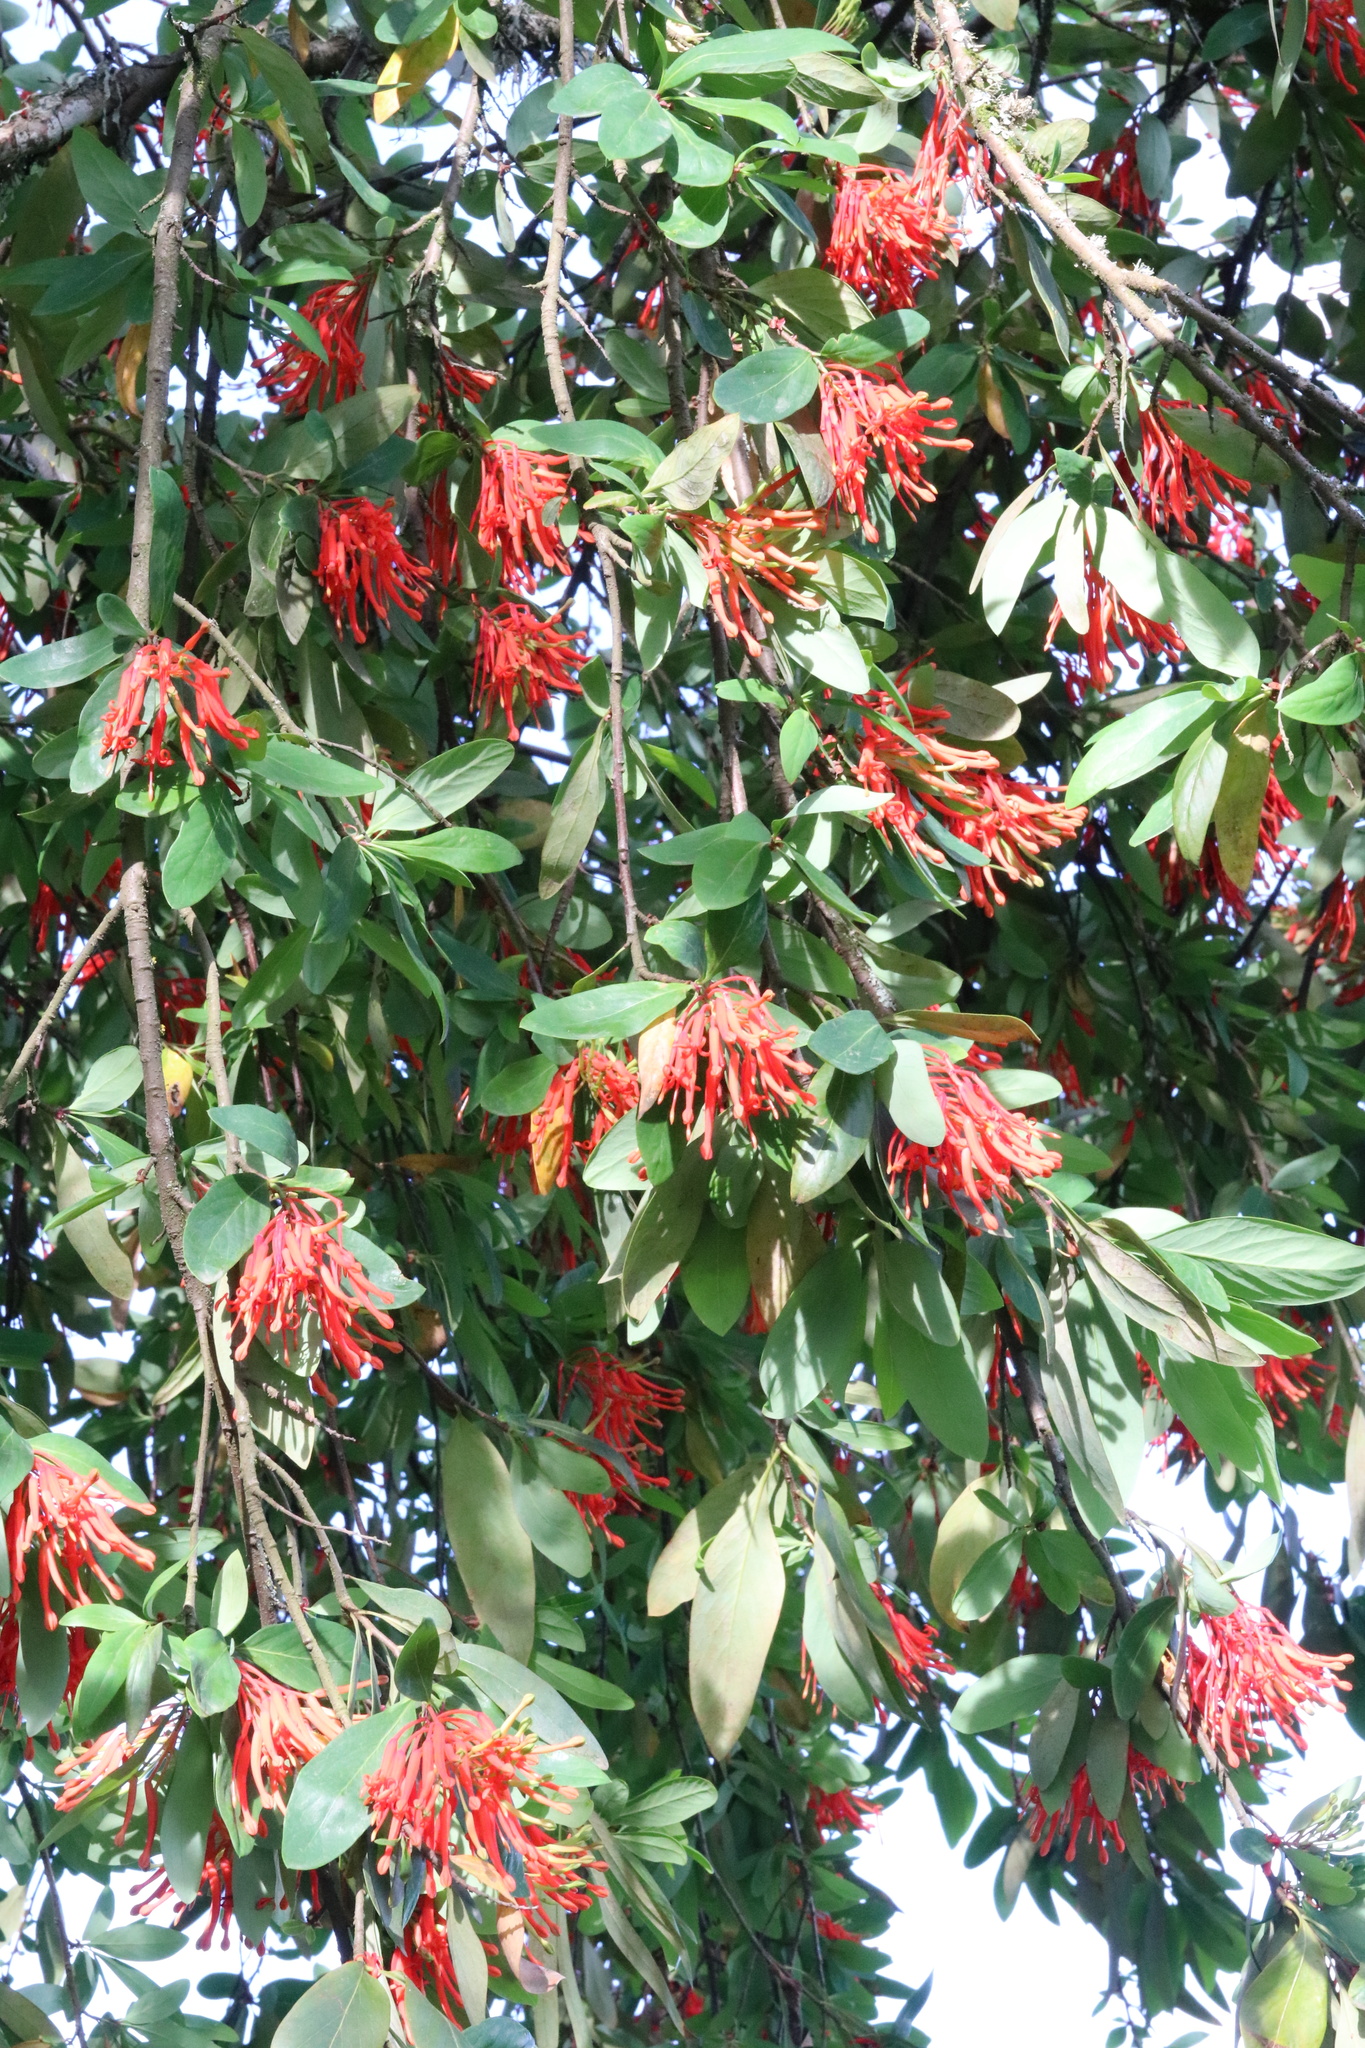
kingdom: Plantae
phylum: Tracheophyta
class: Magnoliopsida
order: Proteales
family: Proteaceae
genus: Embothrium
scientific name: Embothrium coccineum
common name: Chilean firebush
